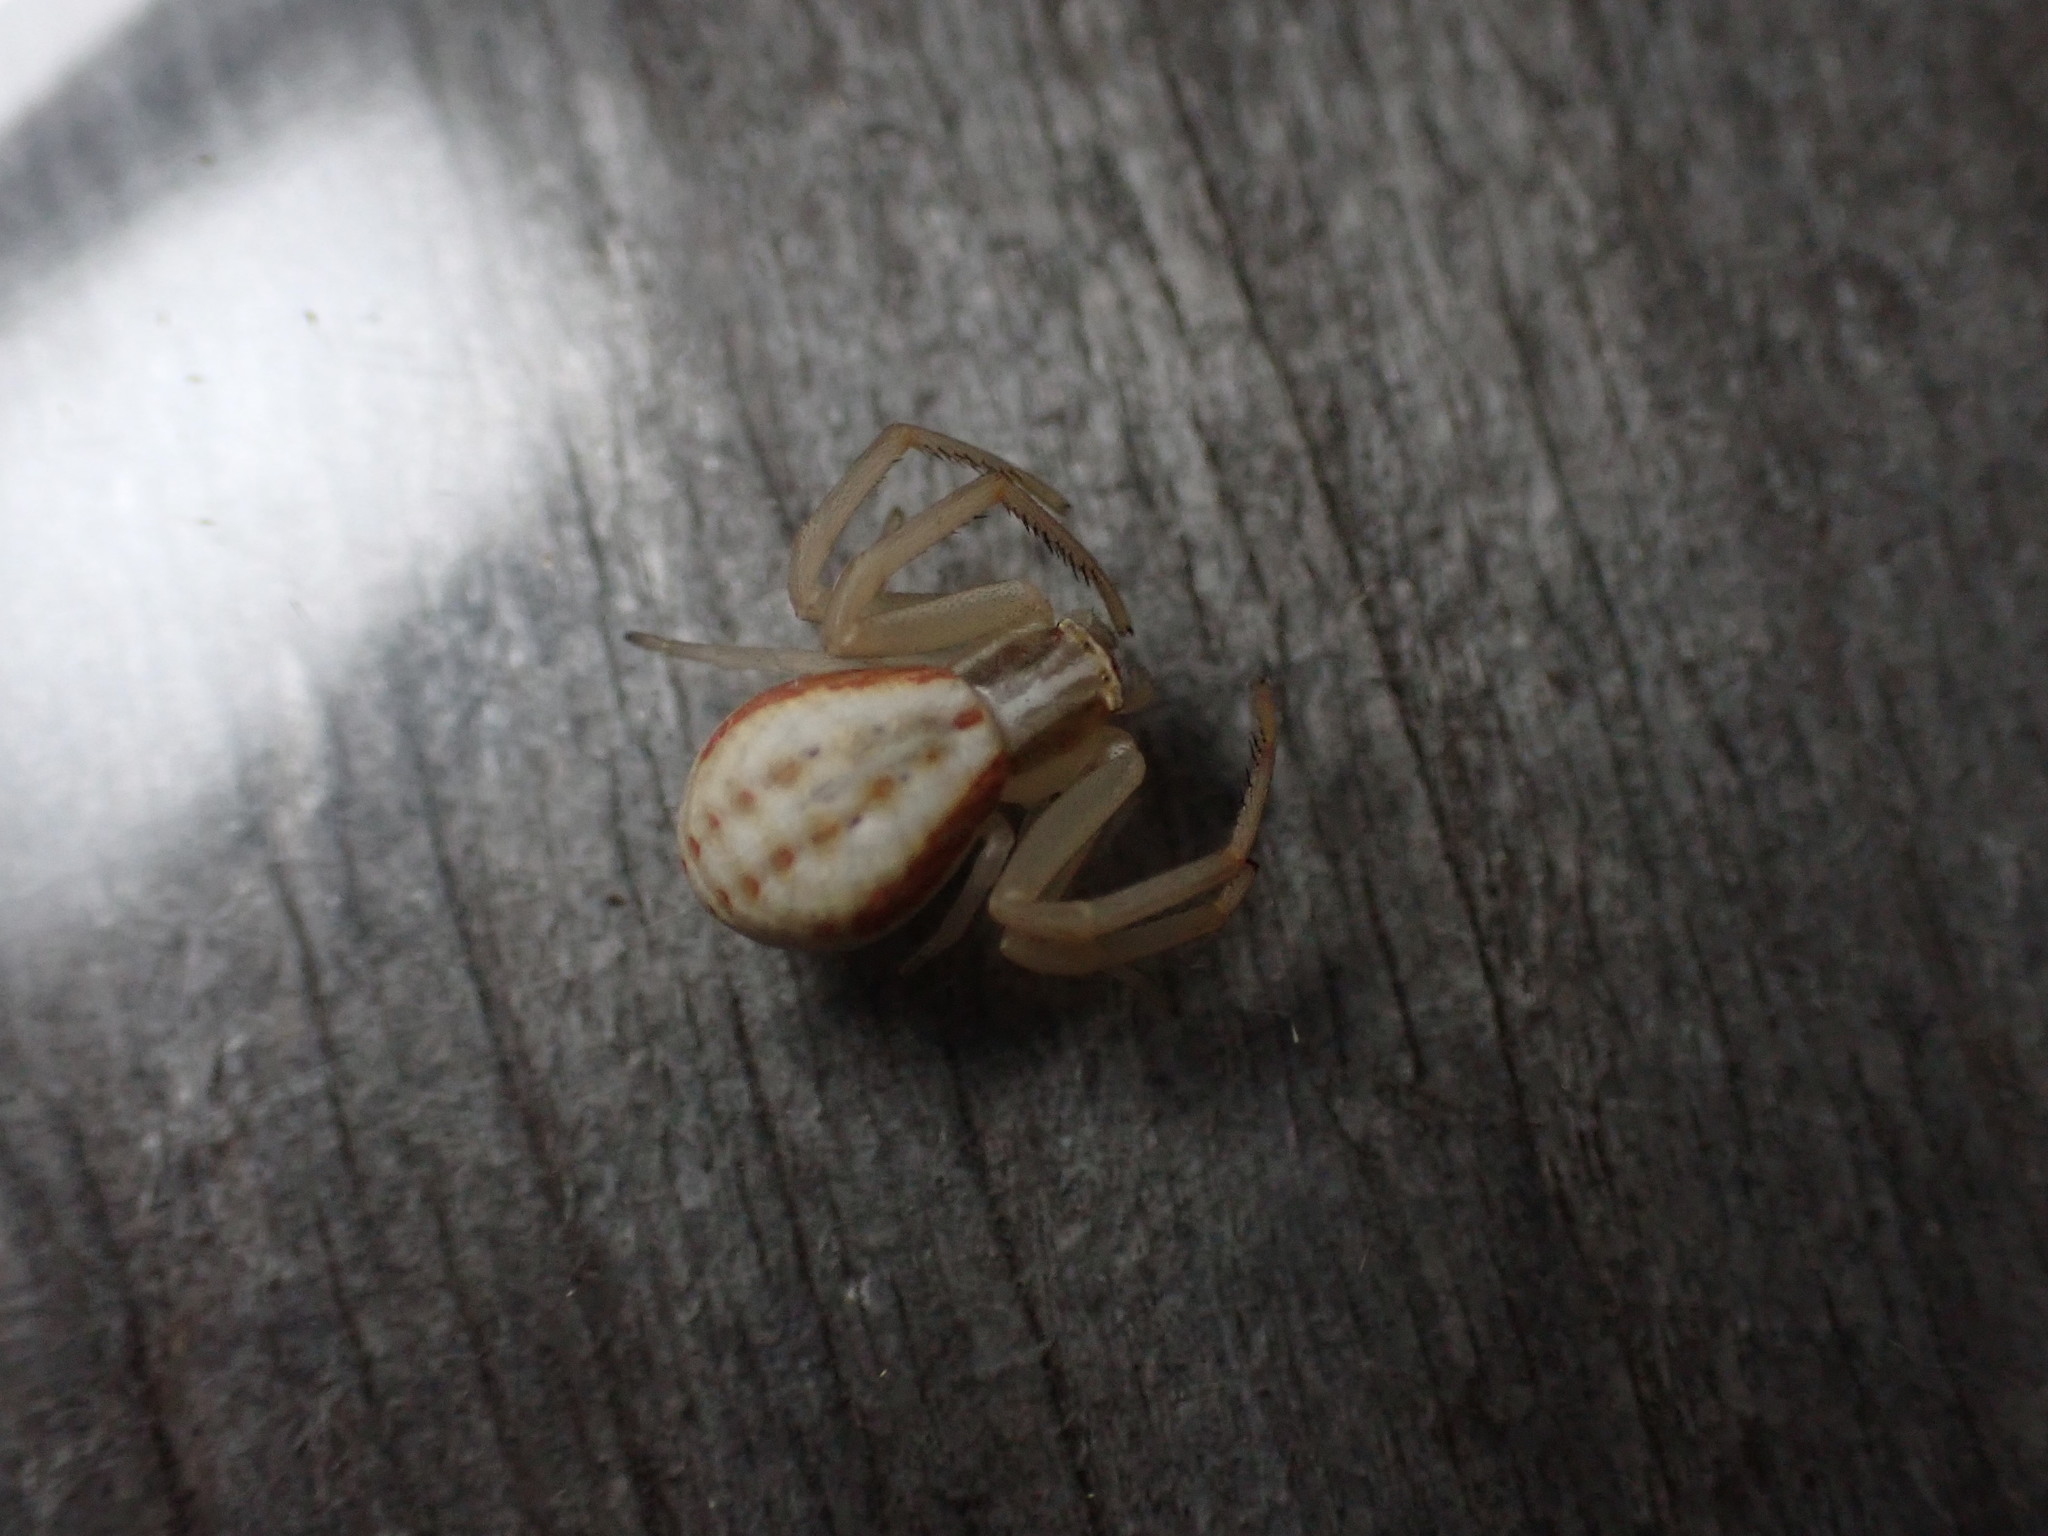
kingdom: Animalia
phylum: Arthropoda
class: Arachnida
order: Araneae
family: Thomisidae
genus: Runcinia
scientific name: Runcinia grammica
